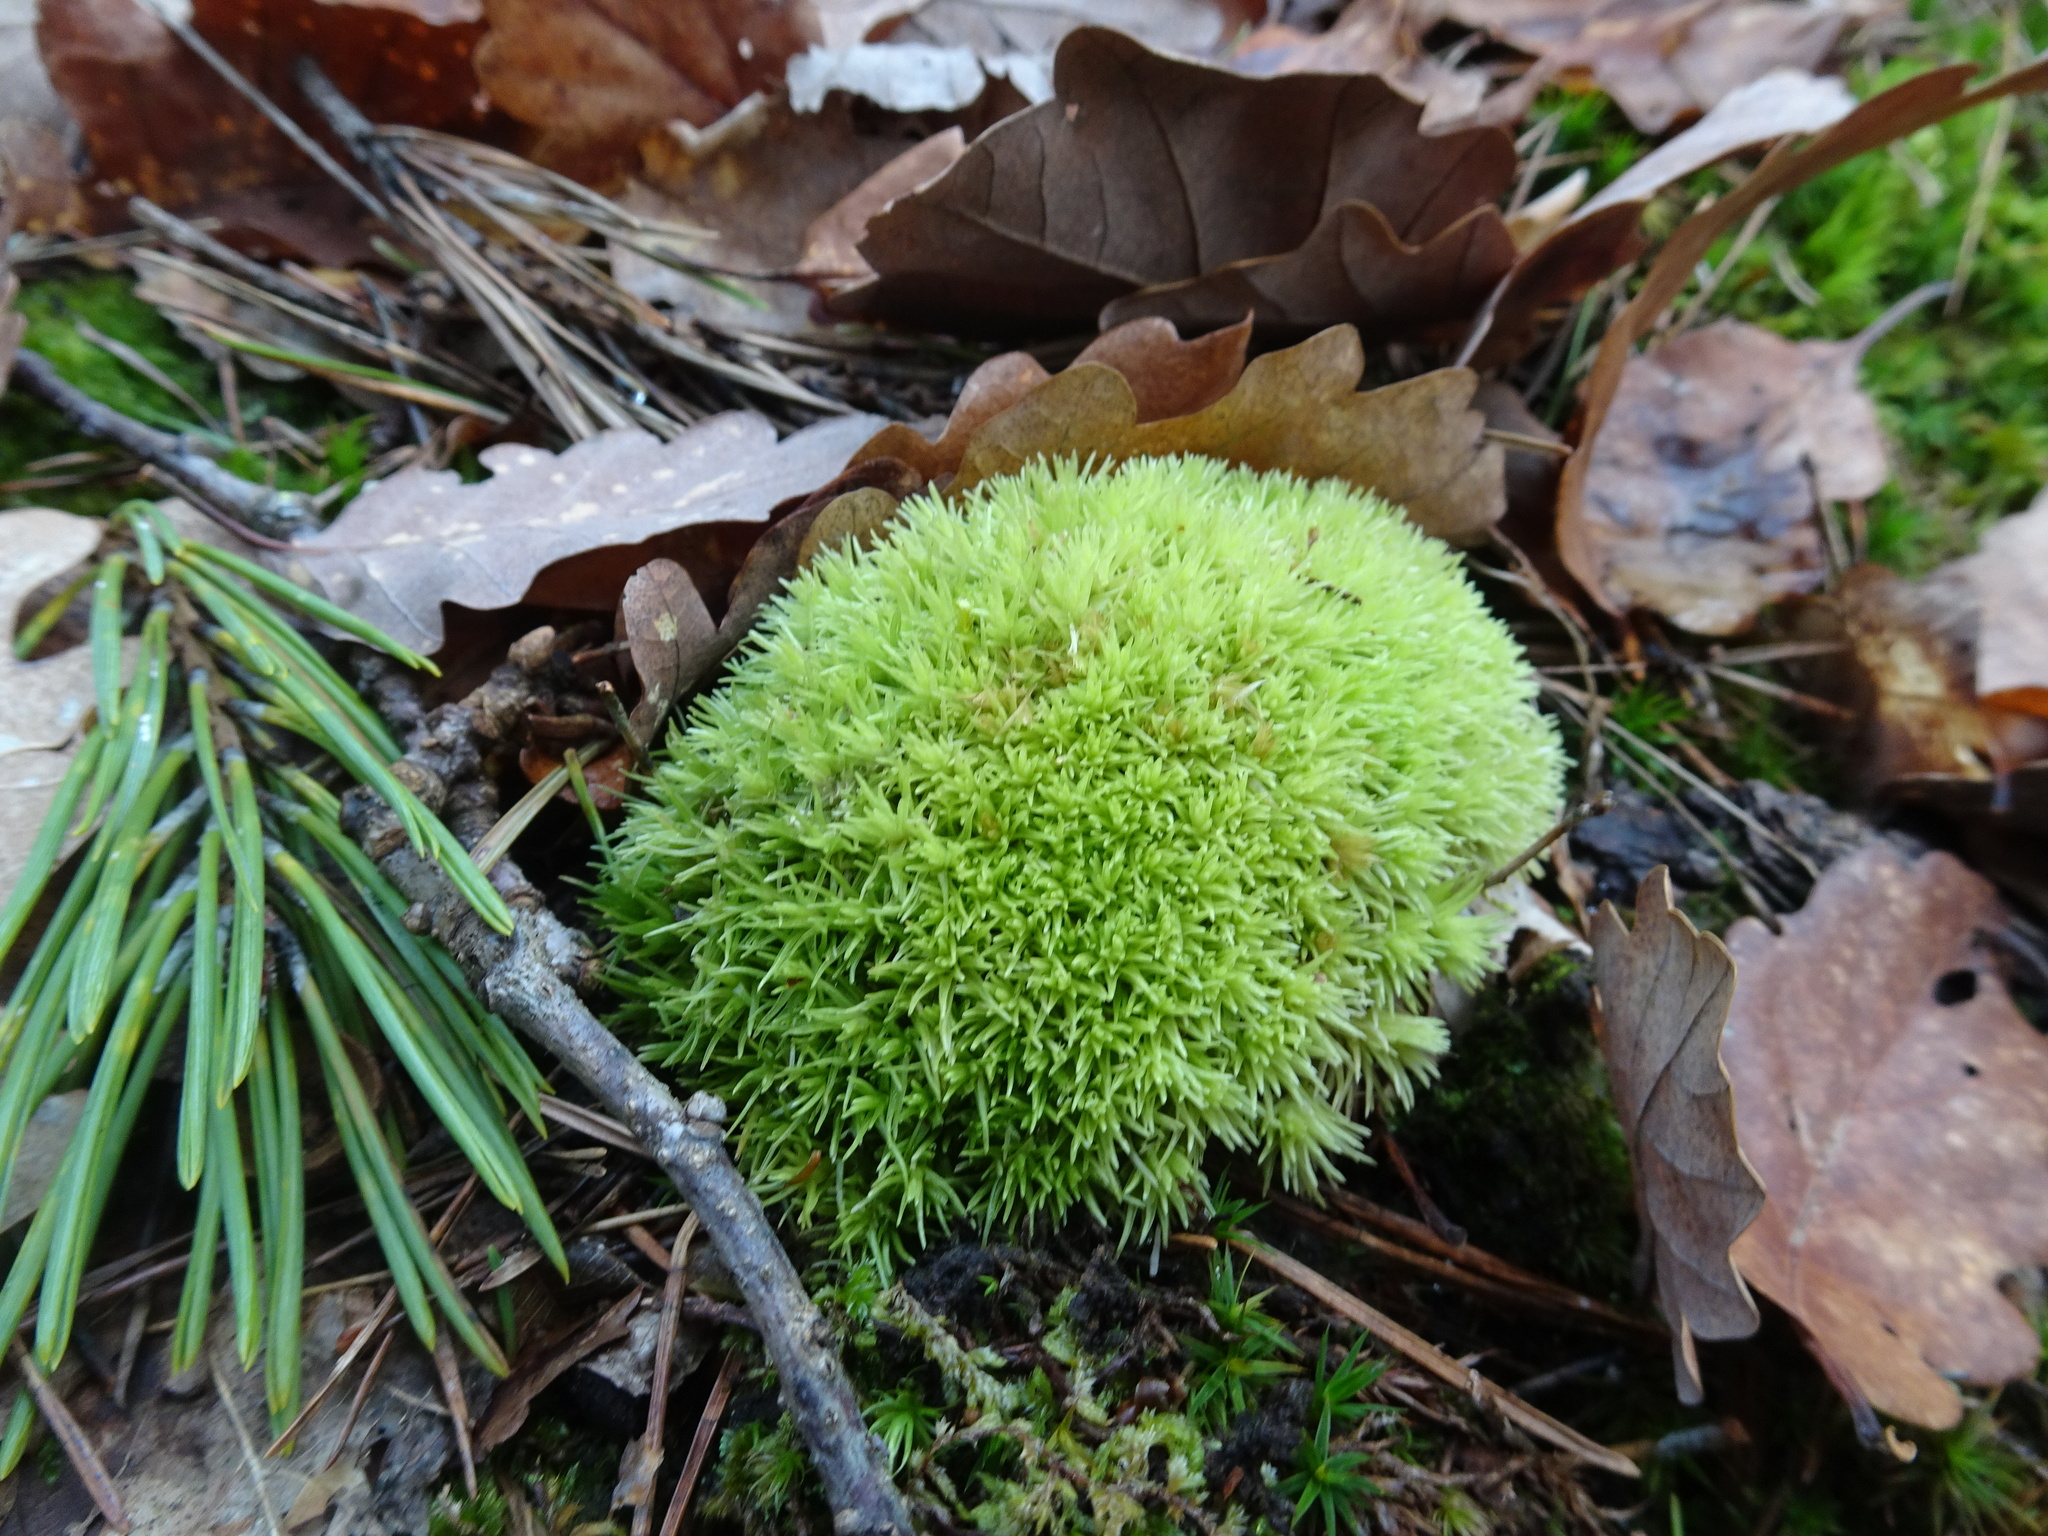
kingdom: Plantae
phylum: Bryophyta
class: Bryopsida
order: Dicranales
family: Leucobryaceae
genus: Leucobryum
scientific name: Leucobryum glaucum
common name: Large white-moss
